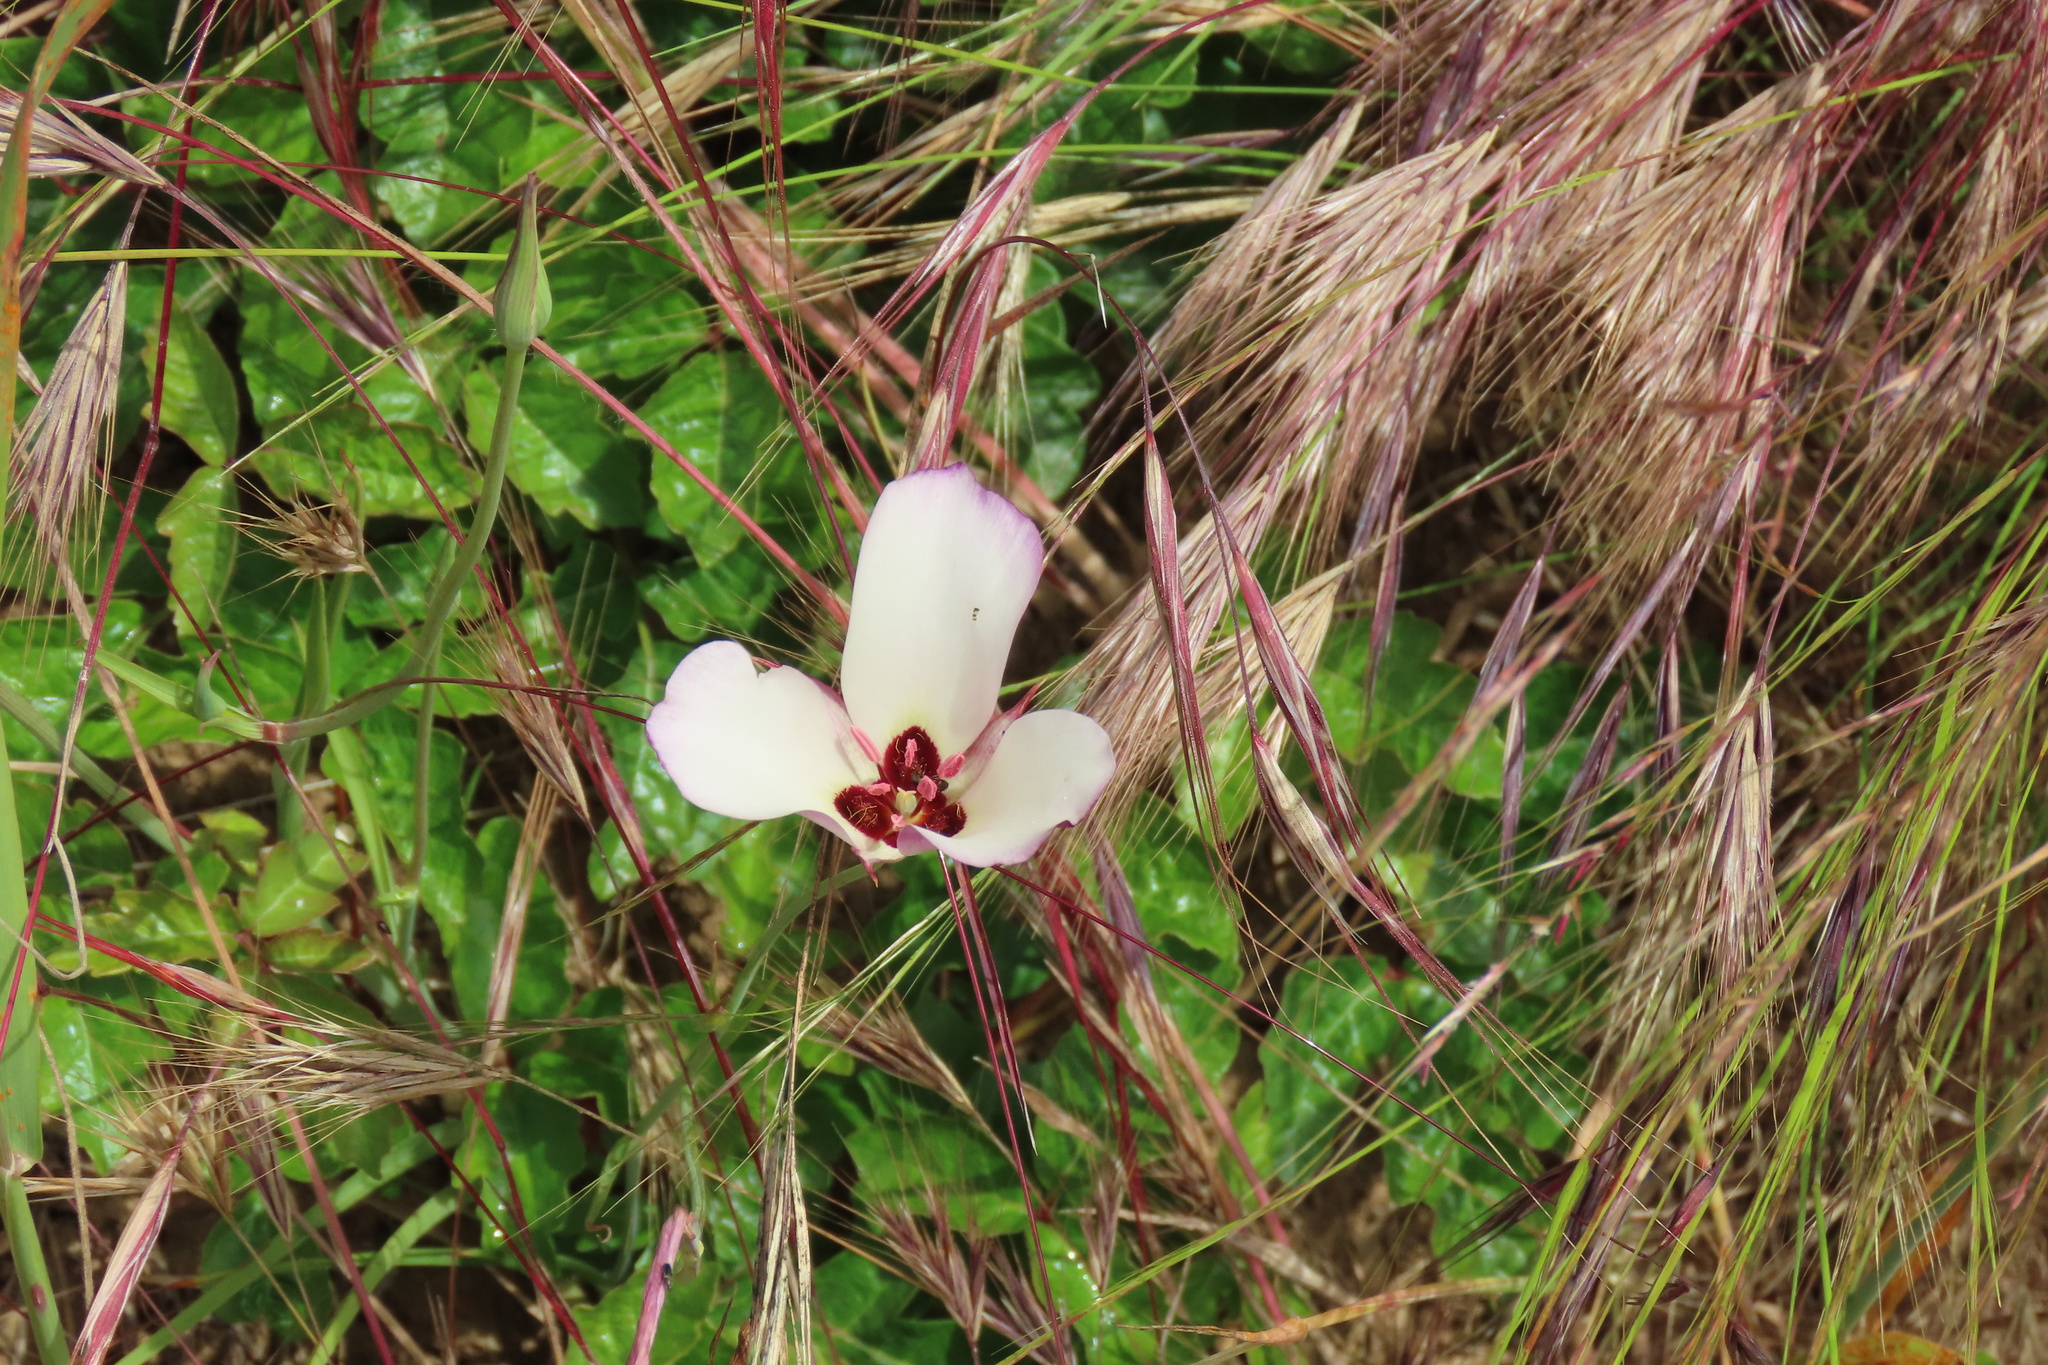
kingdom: Plantae
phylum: Tracheophyta
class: Liliopsida
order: Liliales
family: Liliaceae
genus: Calochortus
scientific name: Calochortus catalinae
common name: Catalina mariposa-lily
